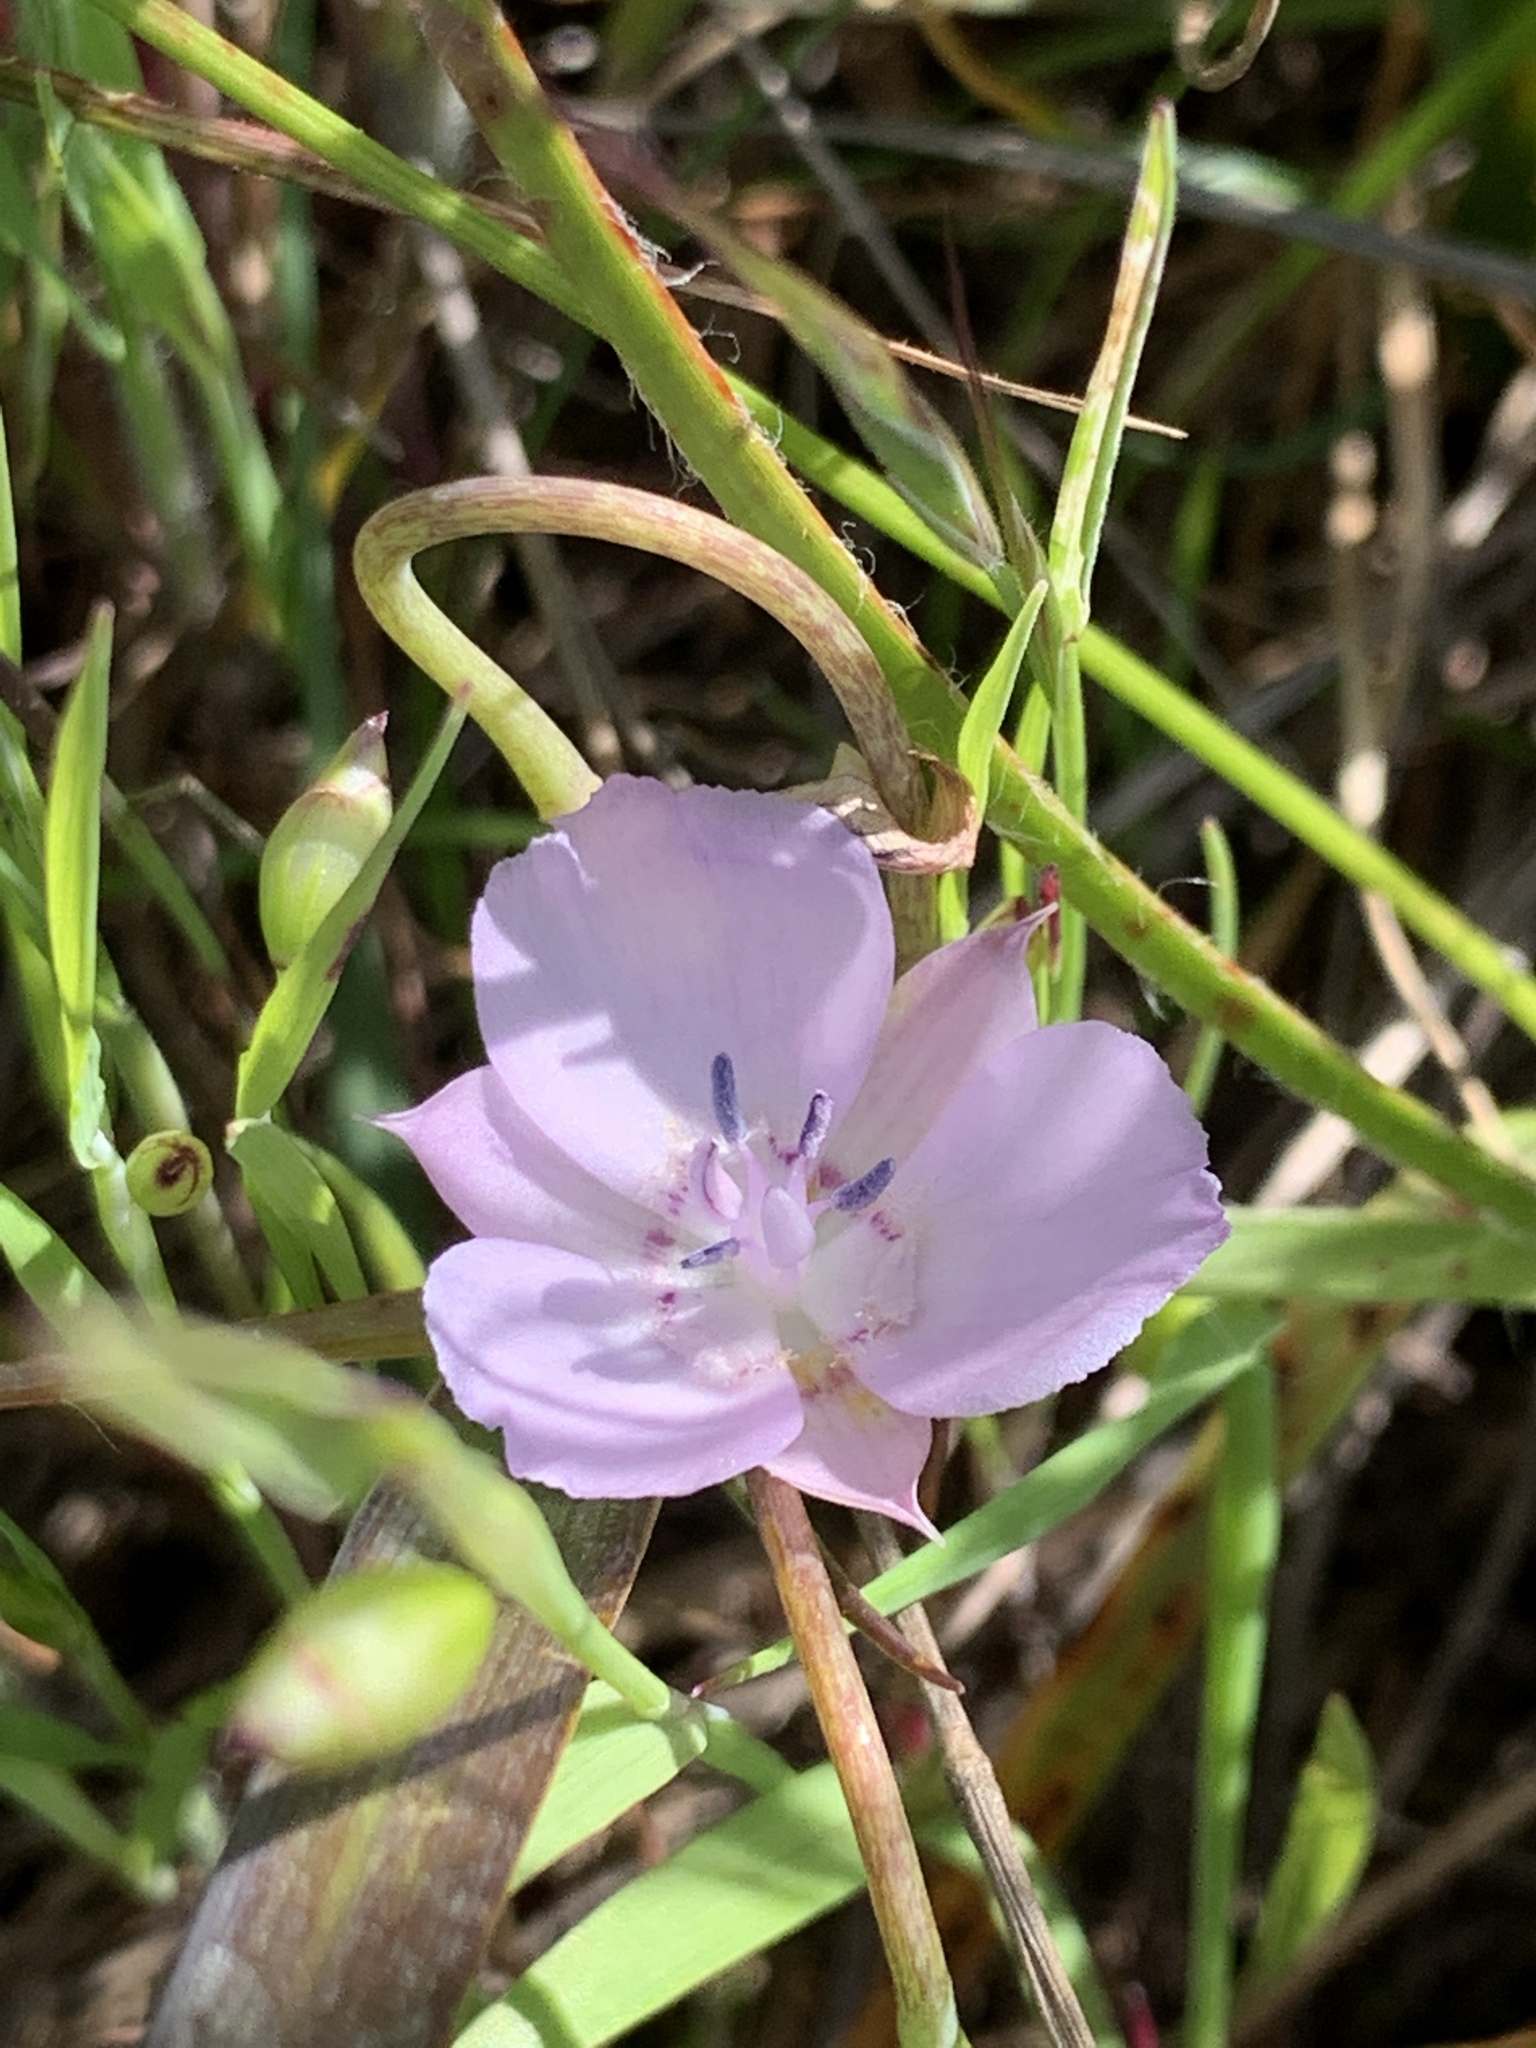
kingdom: Plantae
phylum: Tracheophyta
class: Liliopsida
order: Liliales
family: Liliaceae
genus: Calochortus
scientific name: Calochortus umbellatus
